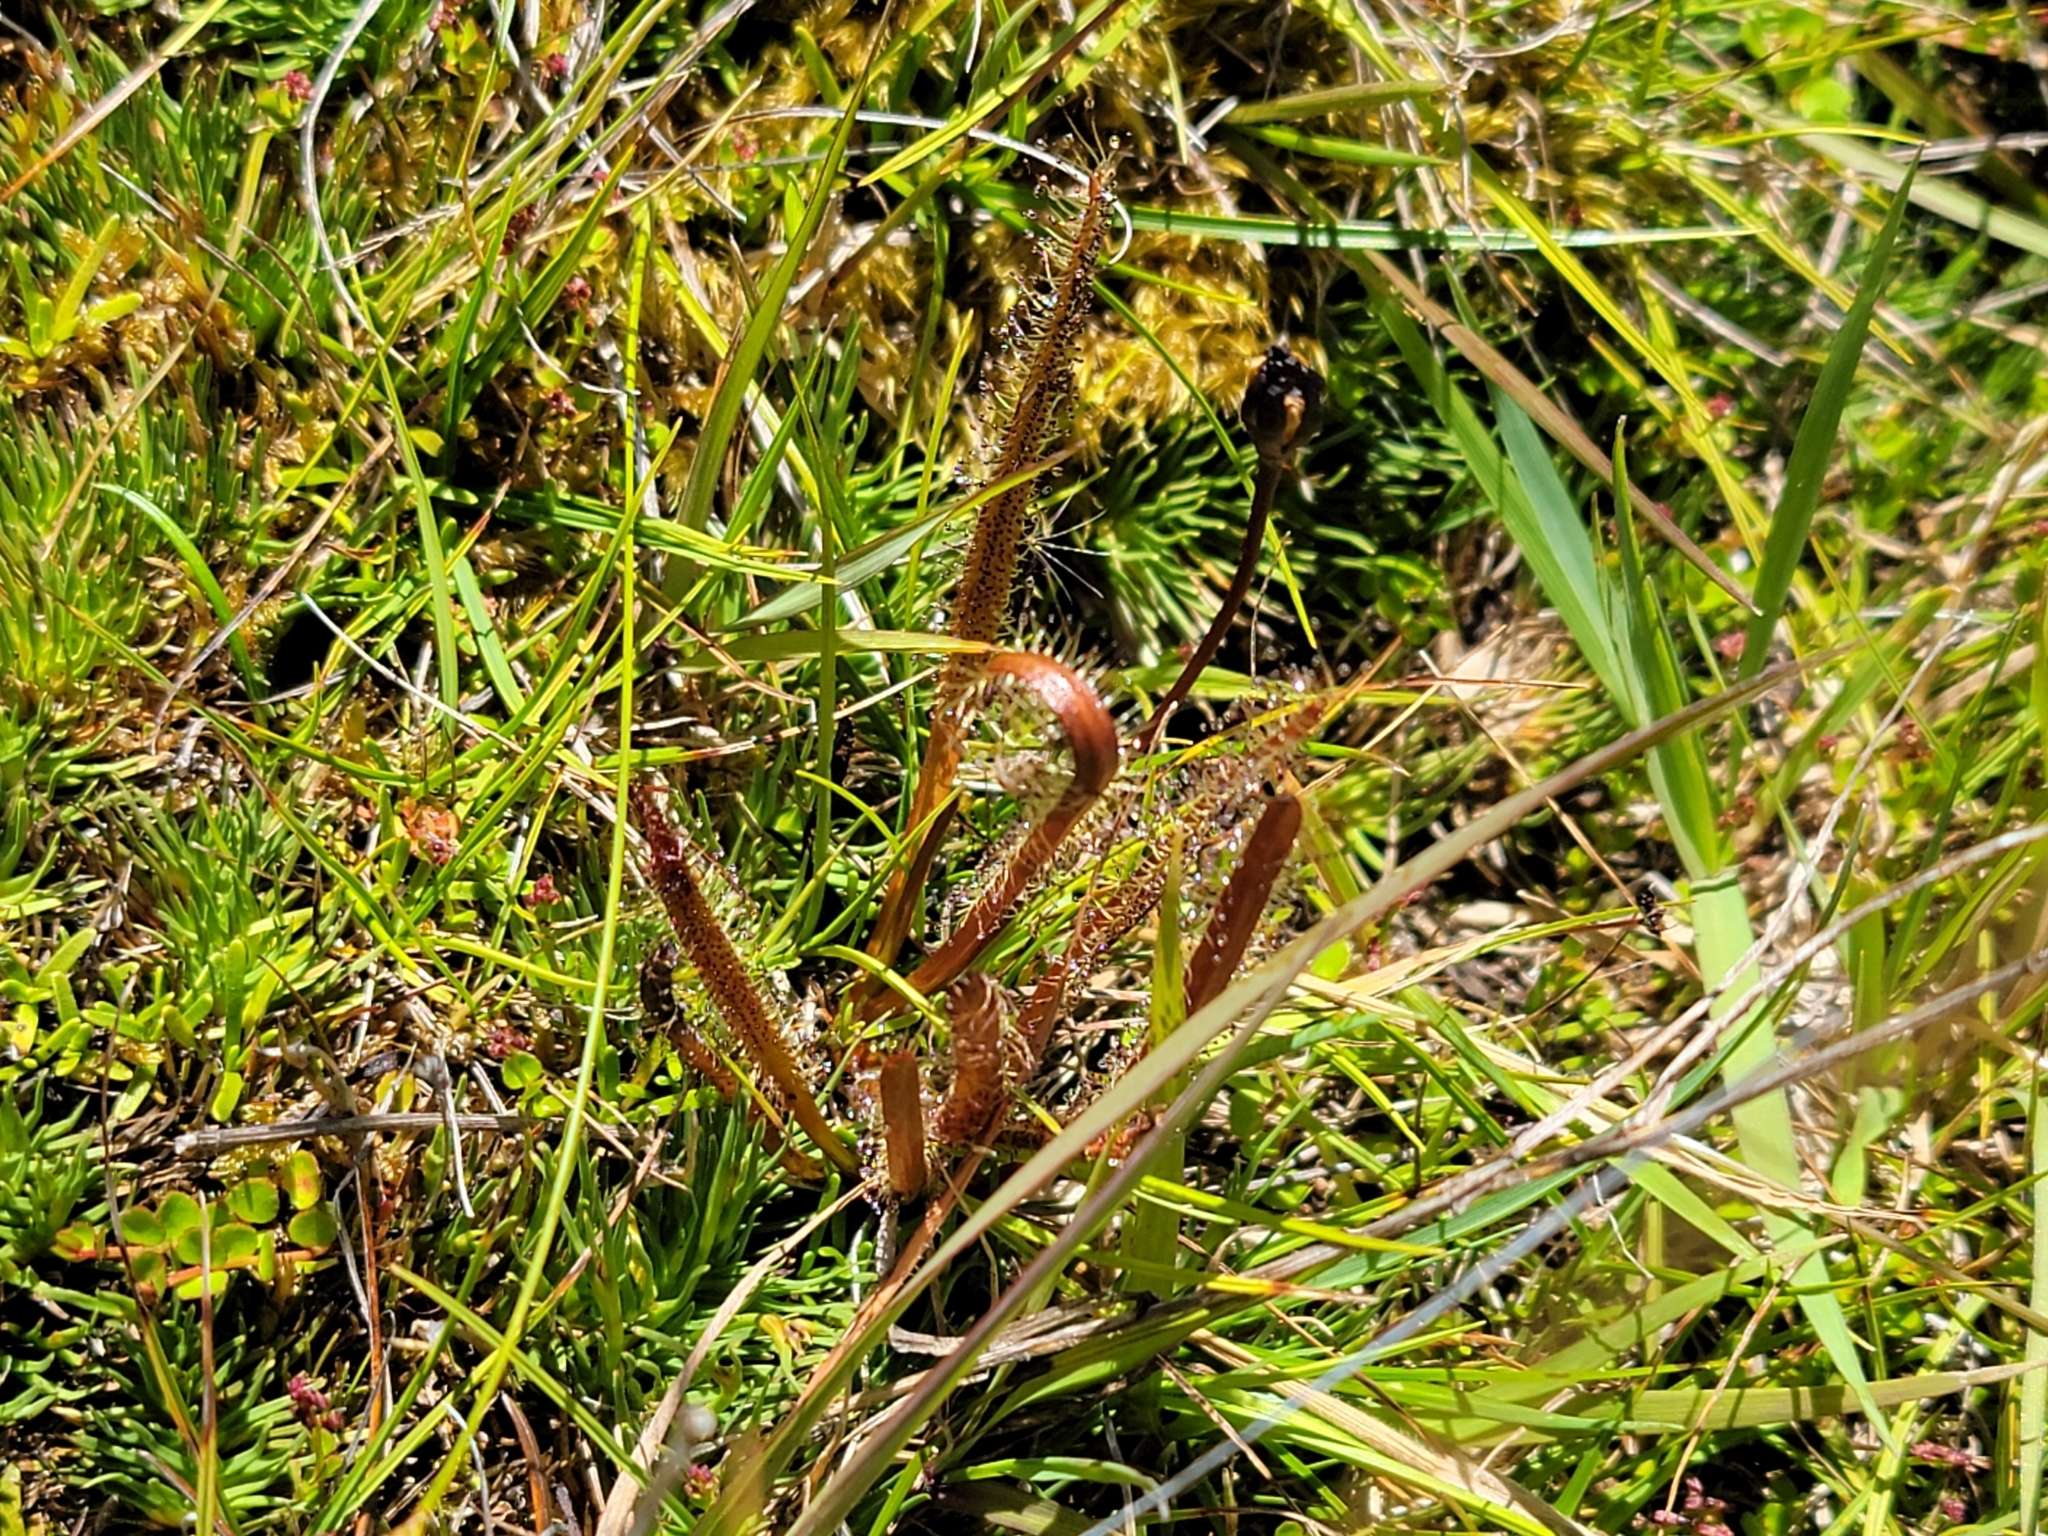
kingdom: Plantae
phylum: Tracheophyta
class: Magnoliopsida
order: Caryophyllales
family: Droseraceae
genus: Drosera
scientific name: Drosera arcturi
